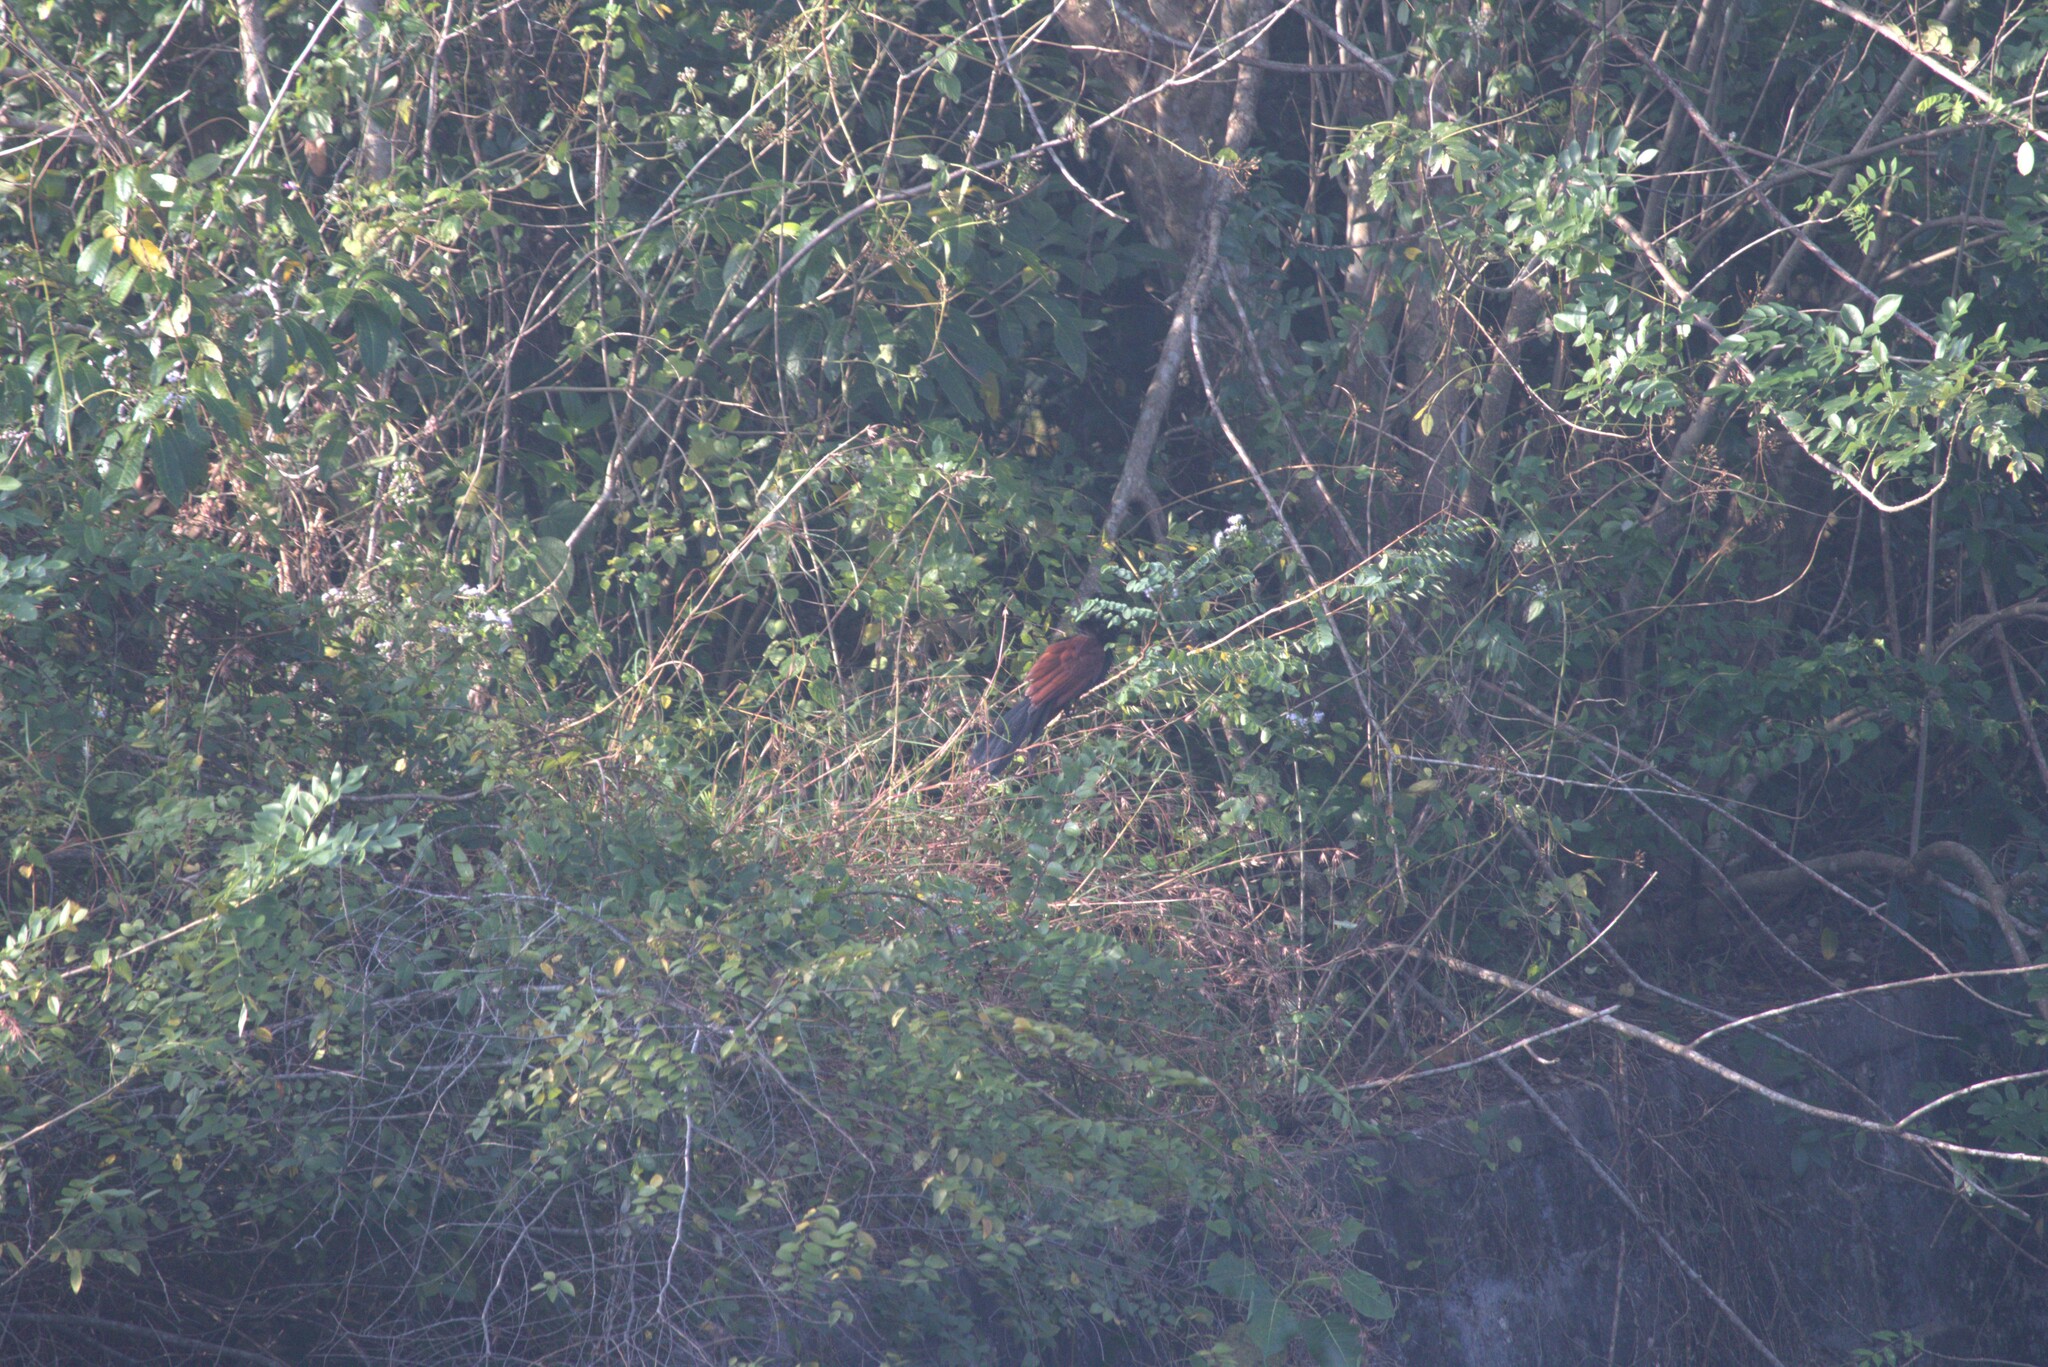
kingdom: Animalia
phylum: Chordata
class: Aves
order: Cuculiformes
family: Cuculidae
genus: Centropus
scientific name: Centropus sinensis
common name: Greater coucal
